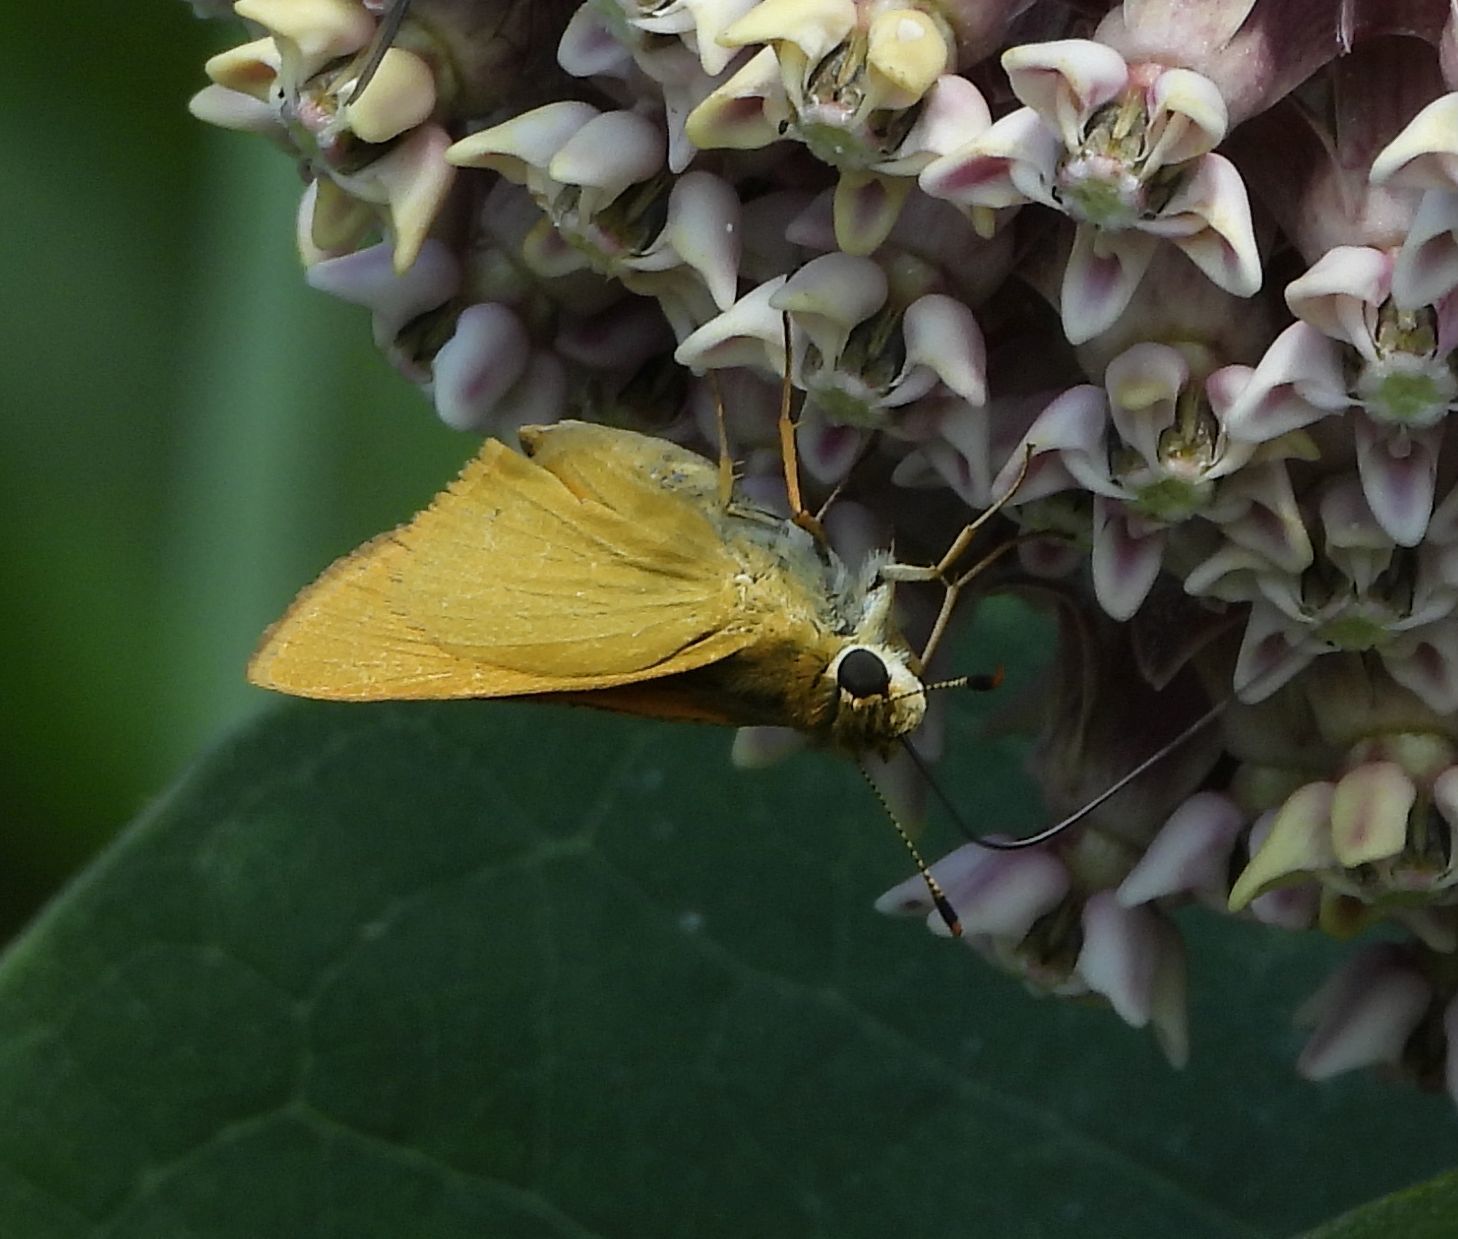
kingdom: Animalia
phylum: Arthropoda
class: Insecta
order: Lepidoptera
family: Hesperiidae
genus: Atrytone
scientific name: Atrytone delaware
